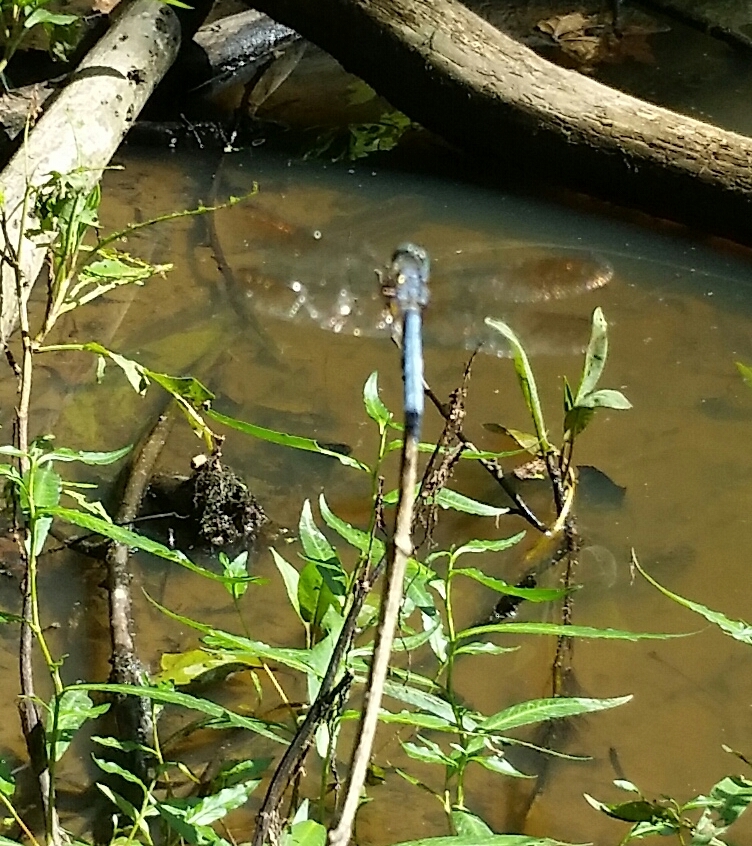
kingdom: Animalia
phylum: Arthropoda
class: Insecta
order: Odonata
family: Libellulidae
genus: Pachydiplax
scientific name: Pachydiplax longipennis
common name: Blue dasher
